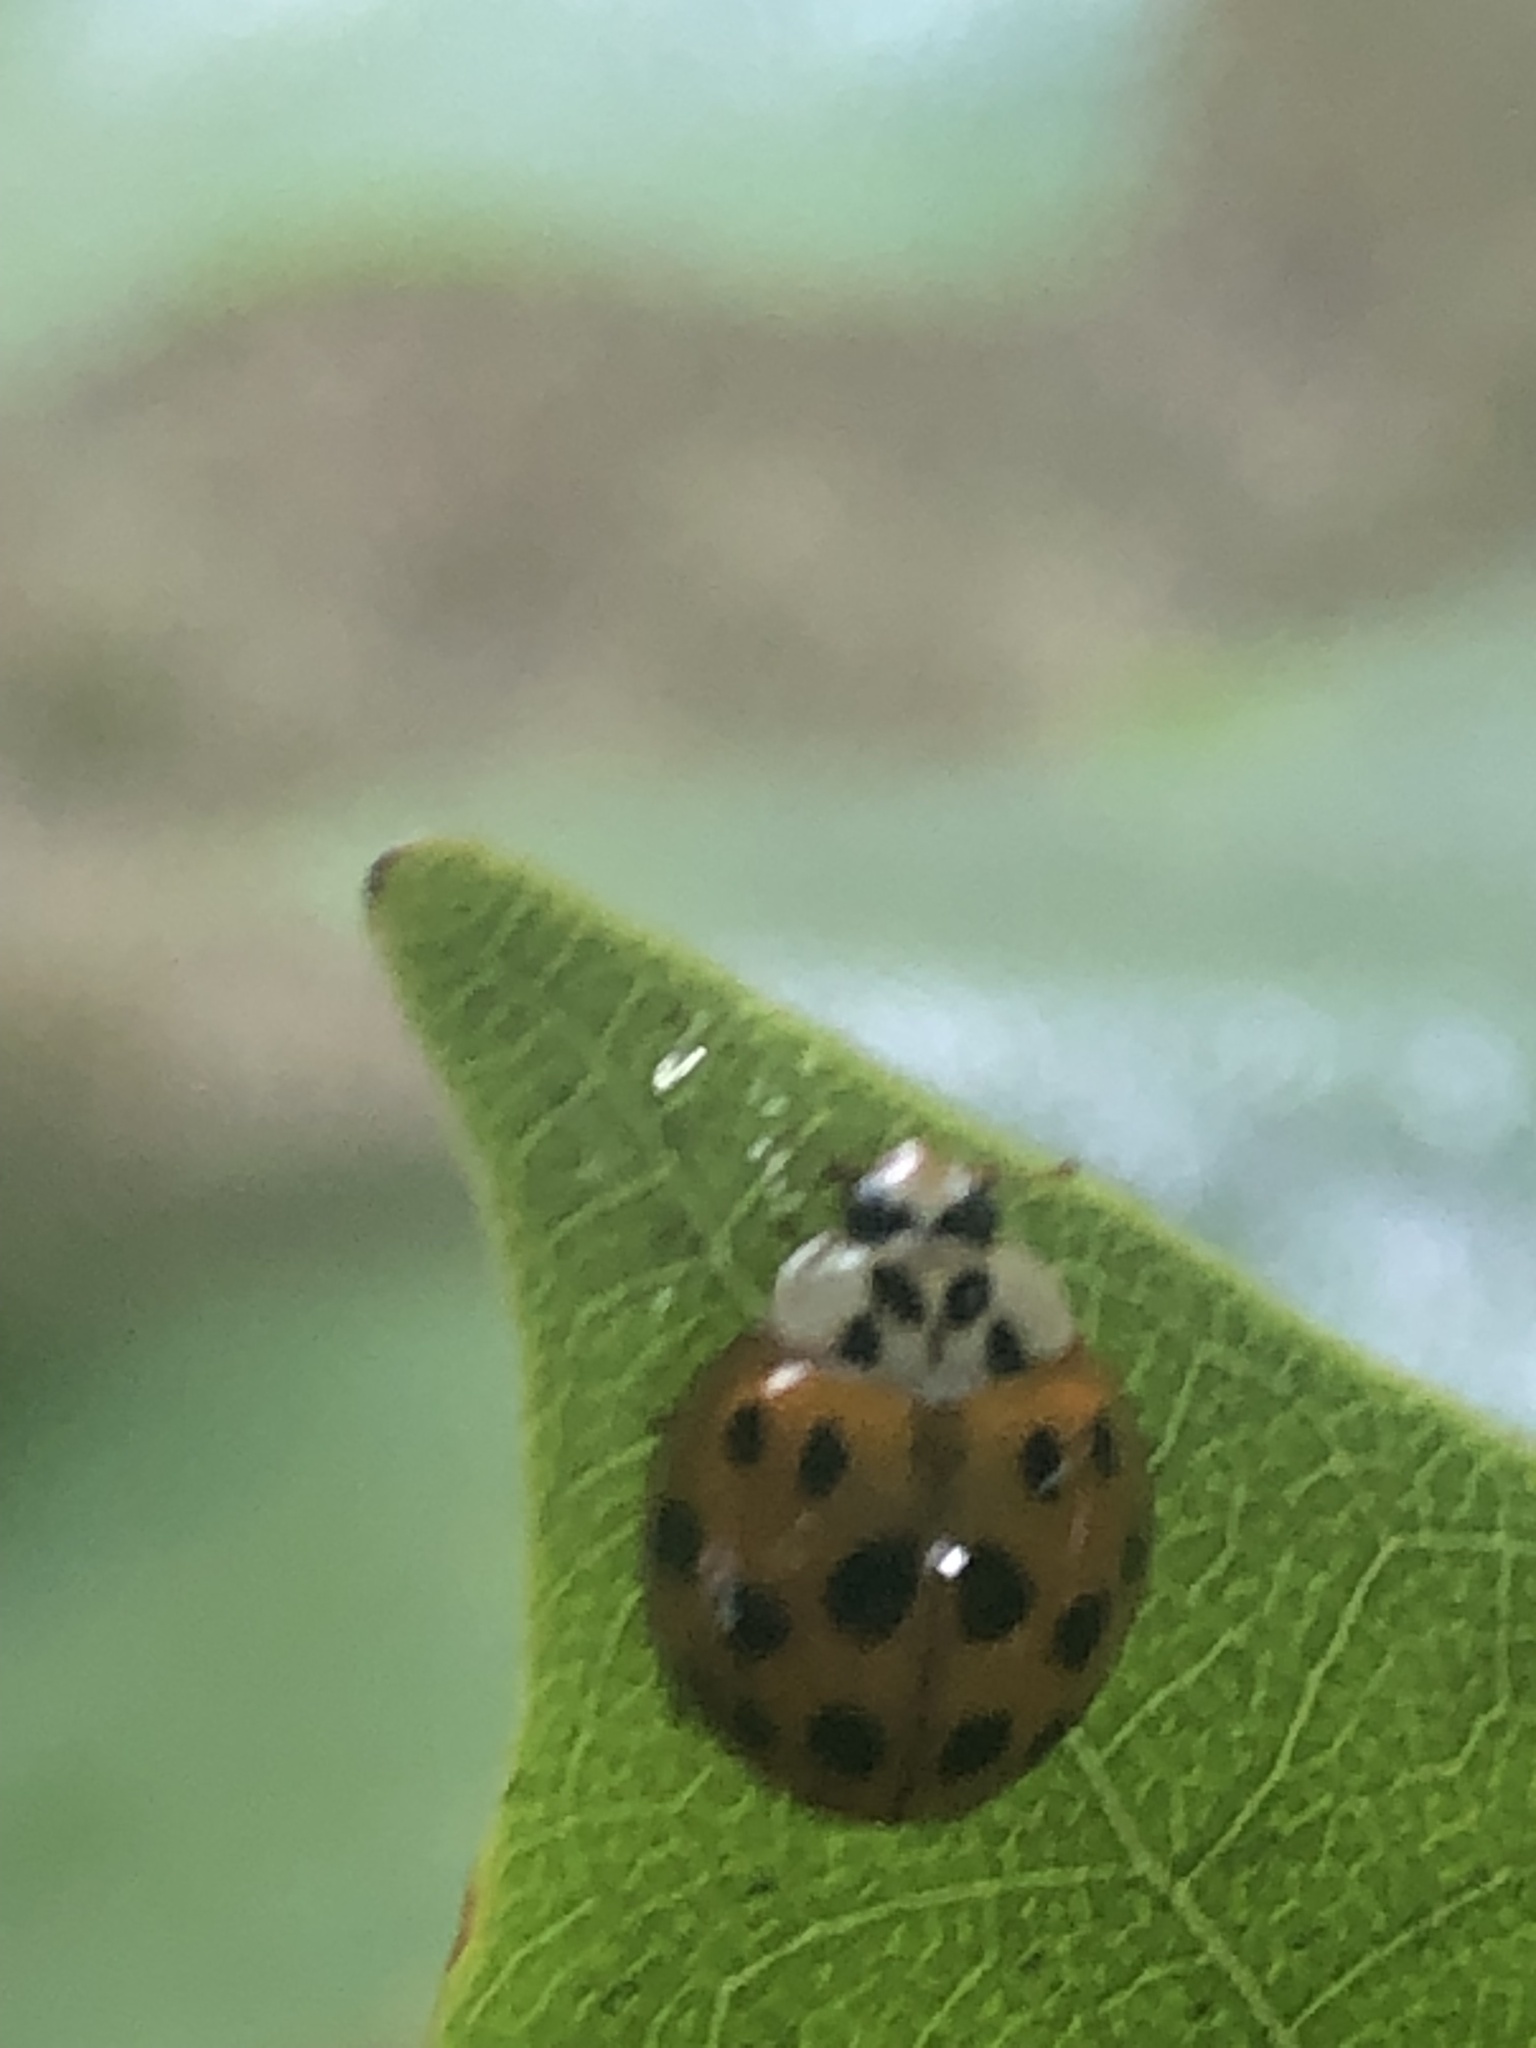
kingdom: Animalia
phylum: Arthropoda
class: Insecta
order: Coleoptera
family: Coccinellidae
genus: Harmonia
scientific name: Harmonia axyridis
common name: Harlequin ladybird
